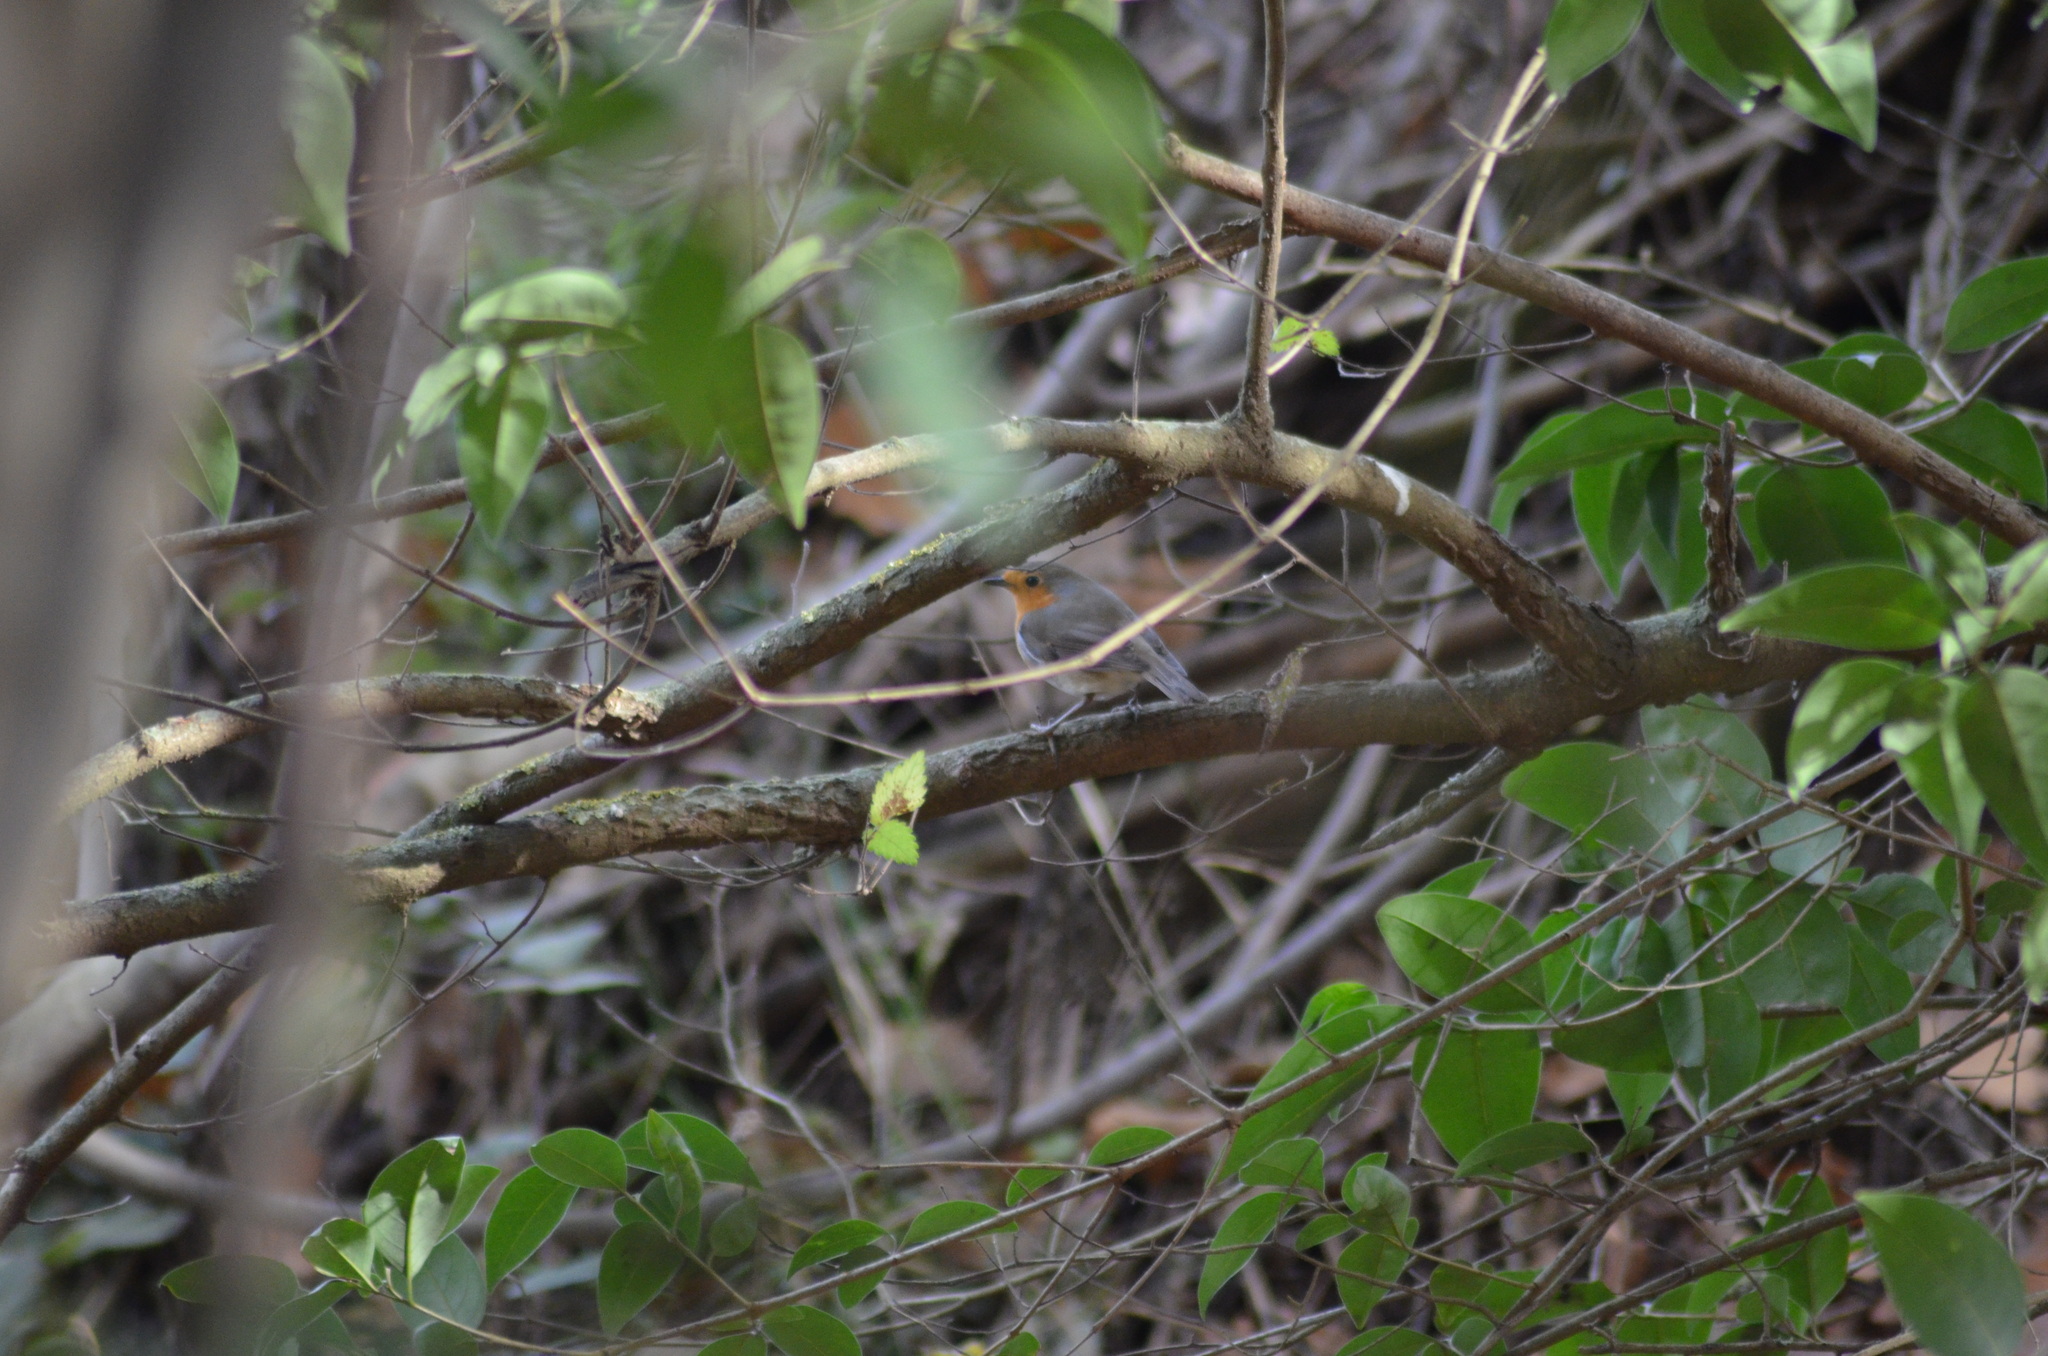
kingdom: Animalia
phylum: Chordata
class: Aves
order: Passeriformes
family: Muscicapidae
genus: Erithacus
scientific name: Erithacus rubecula
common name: European robin
